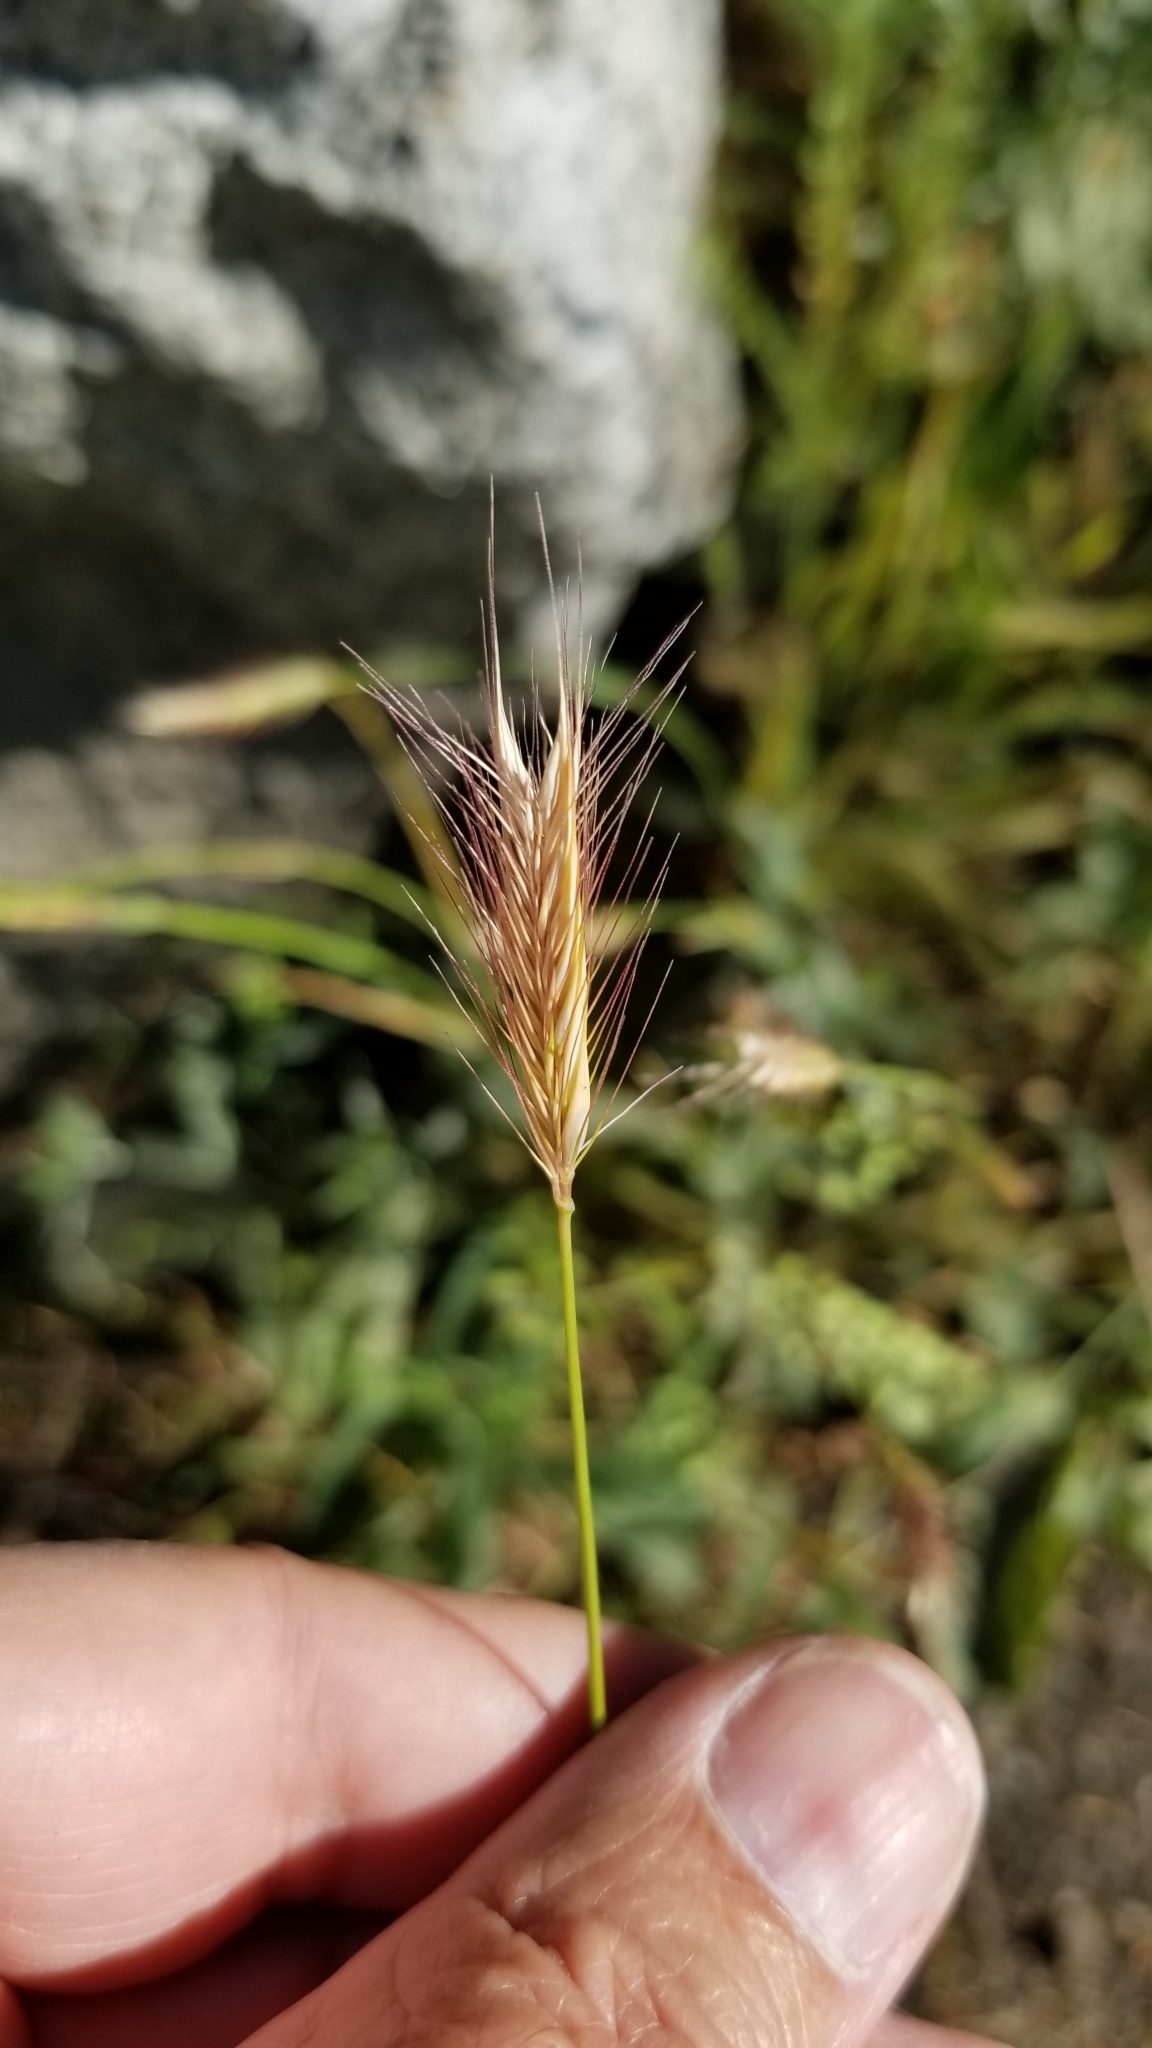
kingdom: Plantae
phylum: Tracheophyta
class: Liliopsida
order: Poales
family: Poaceae
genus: Hordeum
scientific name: Hordeum brachyantherum
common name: Meadow barley
